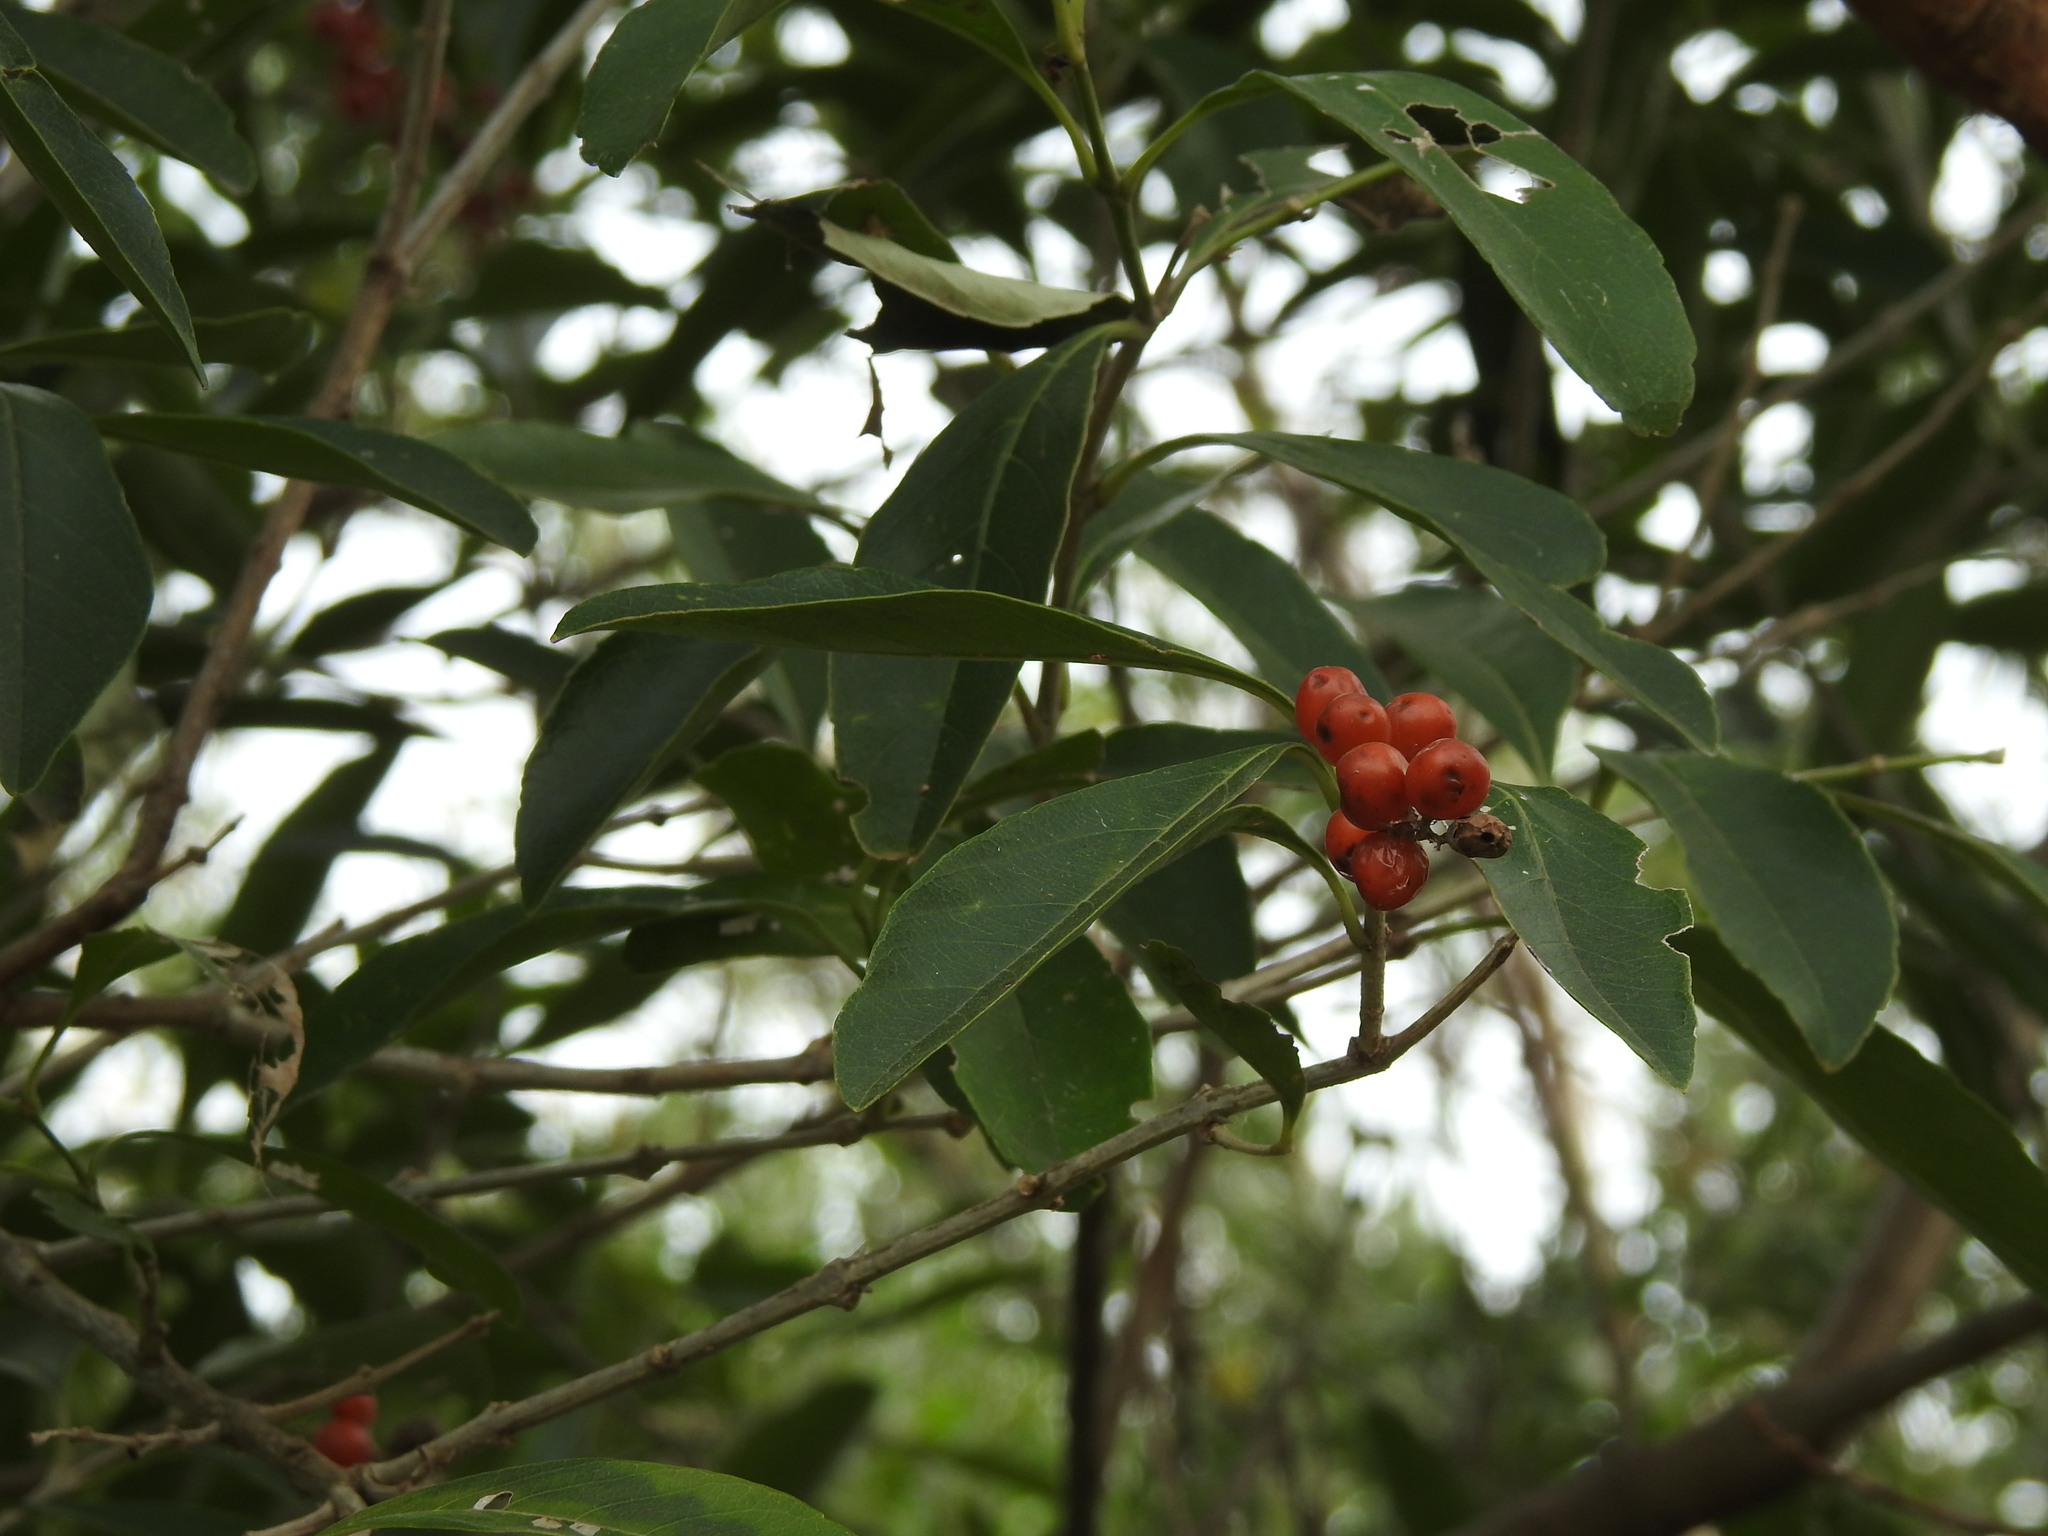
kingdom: Plantae
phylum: Tracheophyta
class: Magnoliopsida
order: Lamiales
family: Verbenaceae
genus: Citharexylum
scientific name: Citharexylum montevidense
